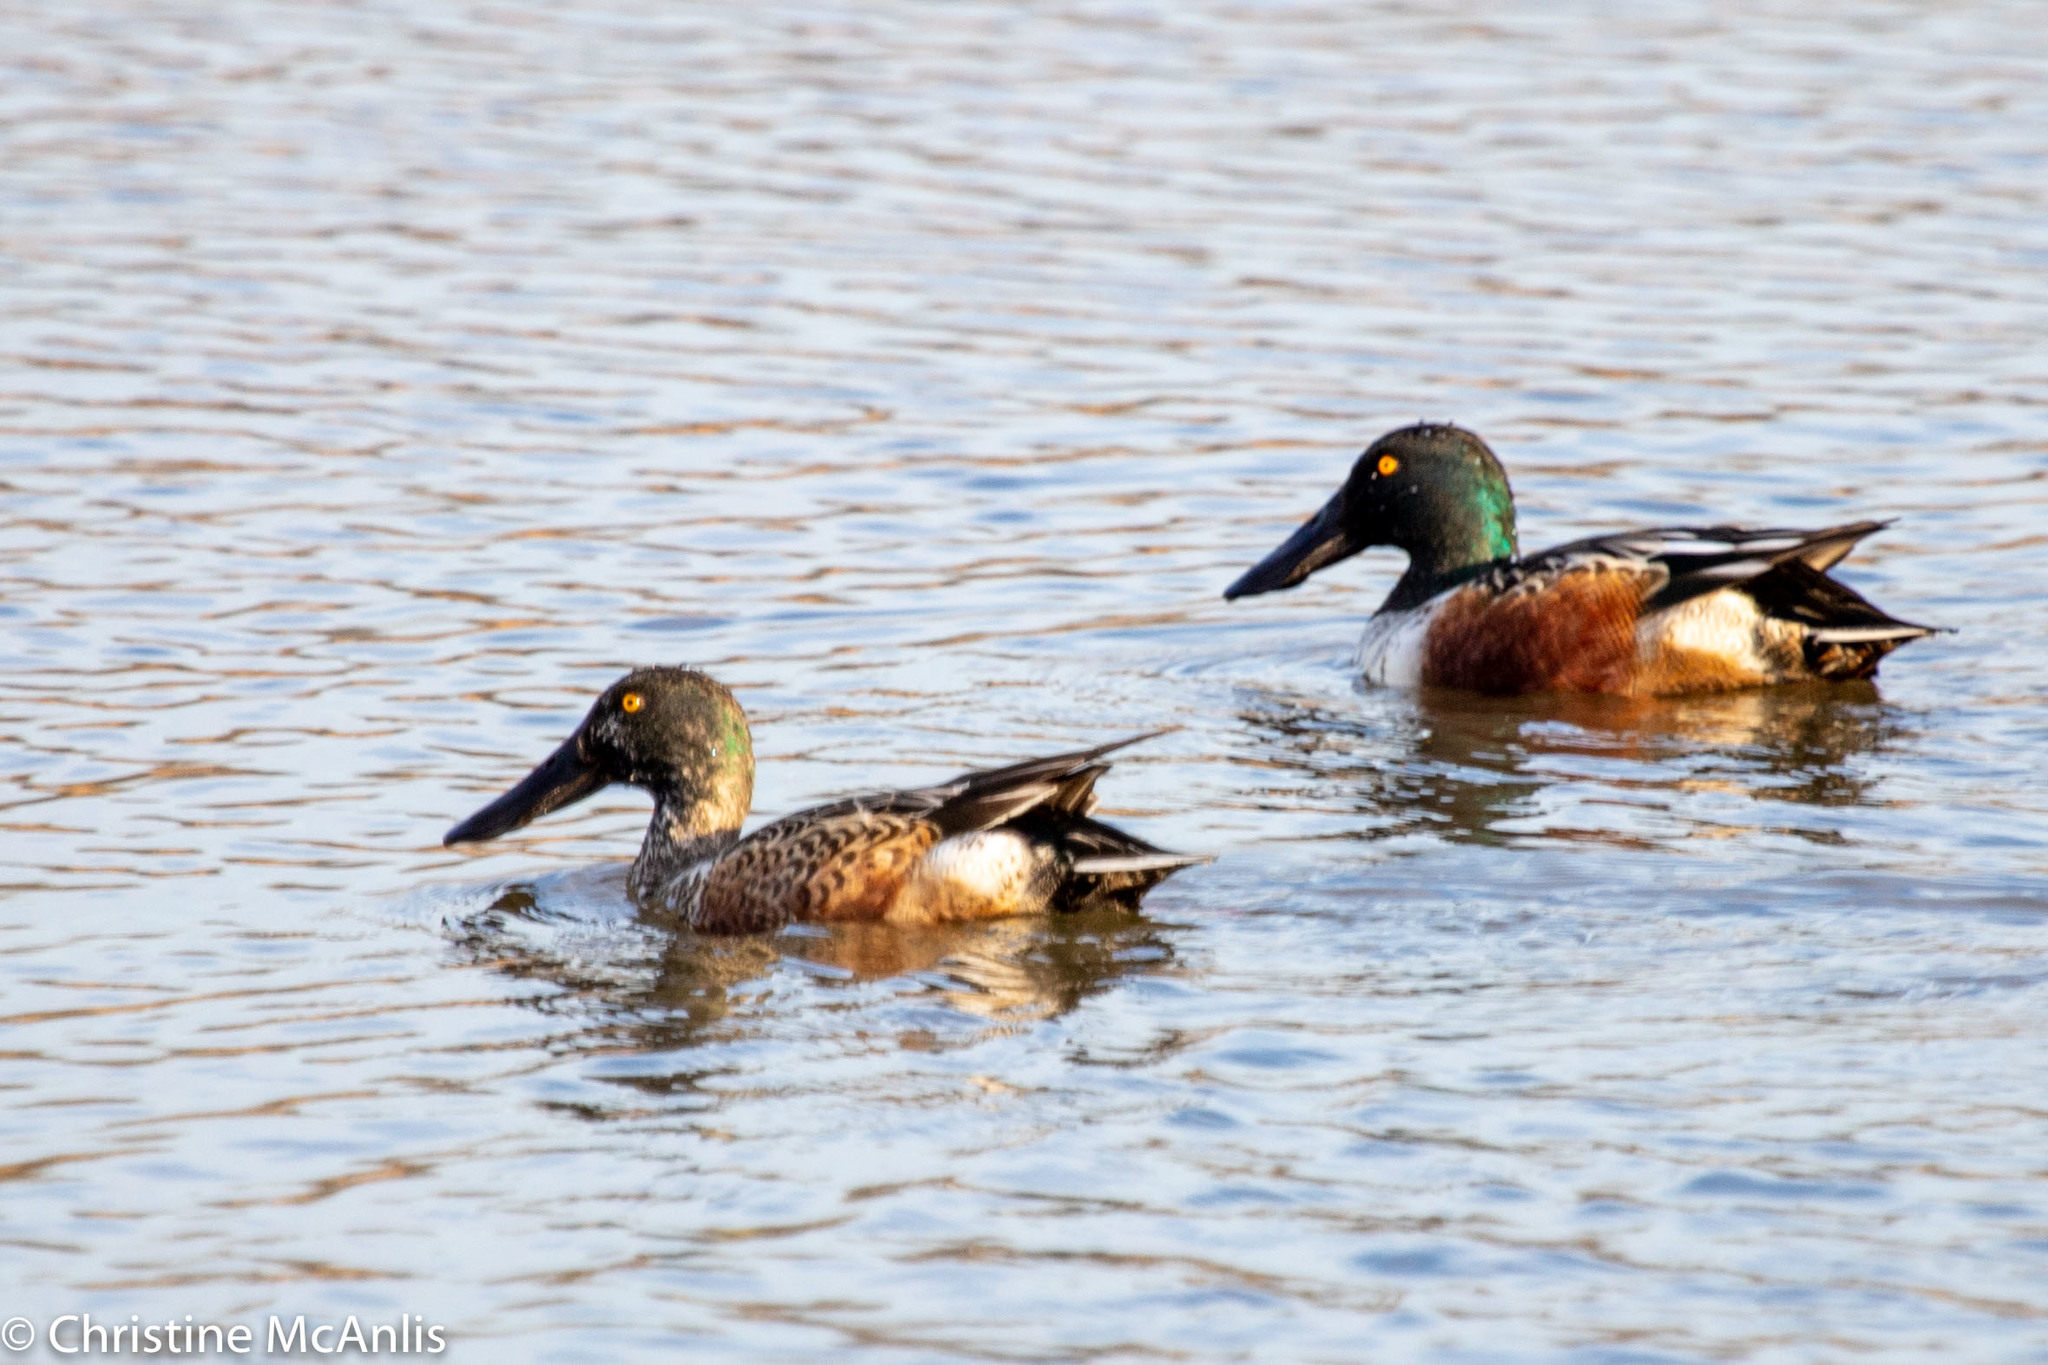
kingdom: Animalia
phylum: Chordata
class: Aves
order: Anseriformes
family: Anatidae
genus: Spatula
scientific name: Spatula clypeata
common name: Northern shoveler
